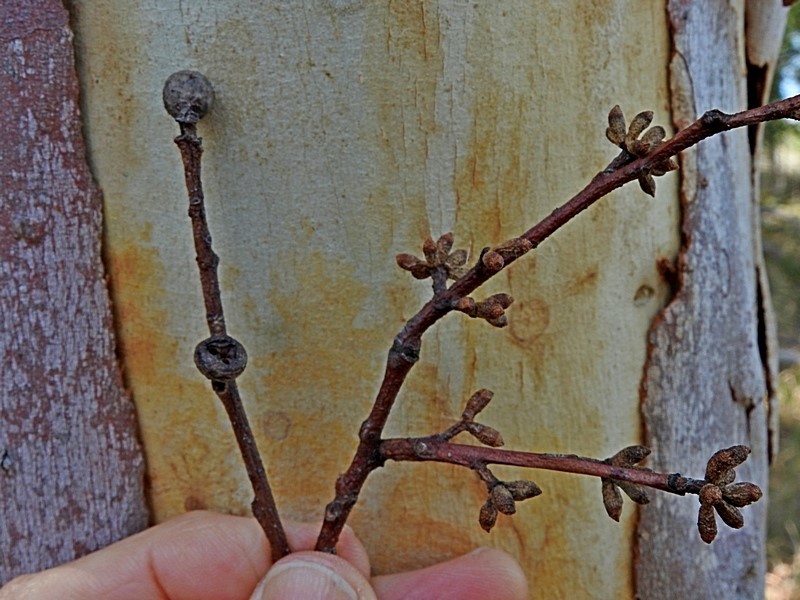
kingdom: Plantae
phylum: Tracheophyta
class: Magnoliopsida
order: Myrtales
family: Myrtaceae
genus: Eucalyptus
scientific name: Eucalyptus pauciflora
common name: Snow gum
